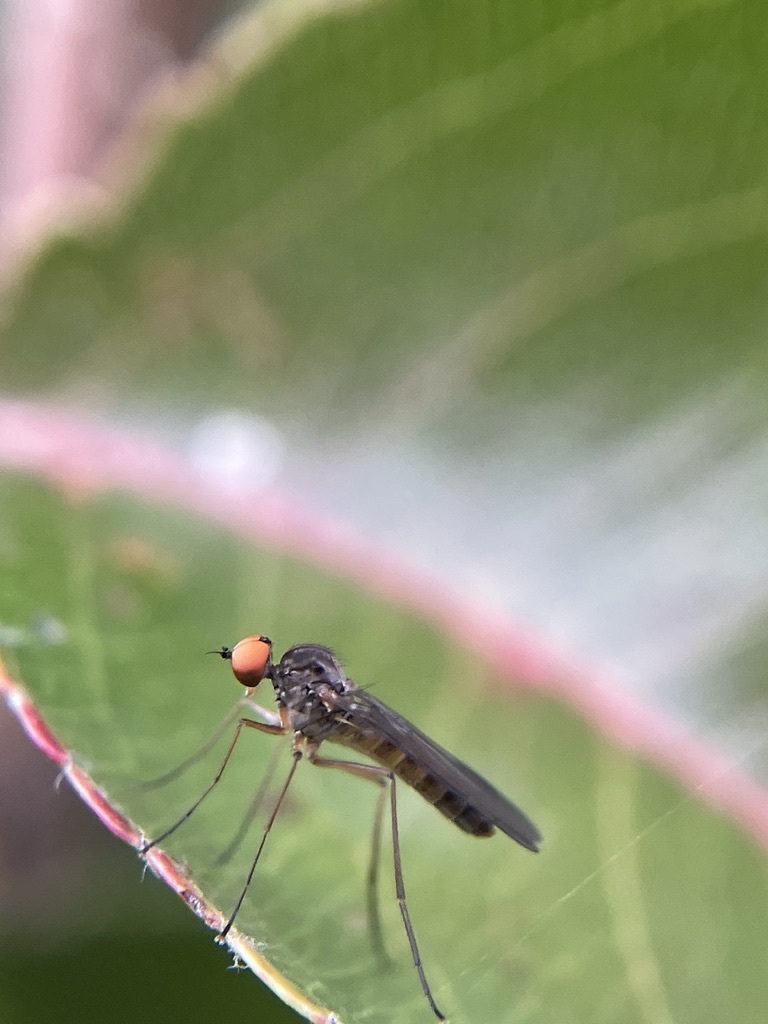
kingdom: Animalia
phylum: Arthropoda
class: Insecta
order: Diptera
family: Oreogetonidae
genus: Oreogeton
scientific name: Oreogeton
